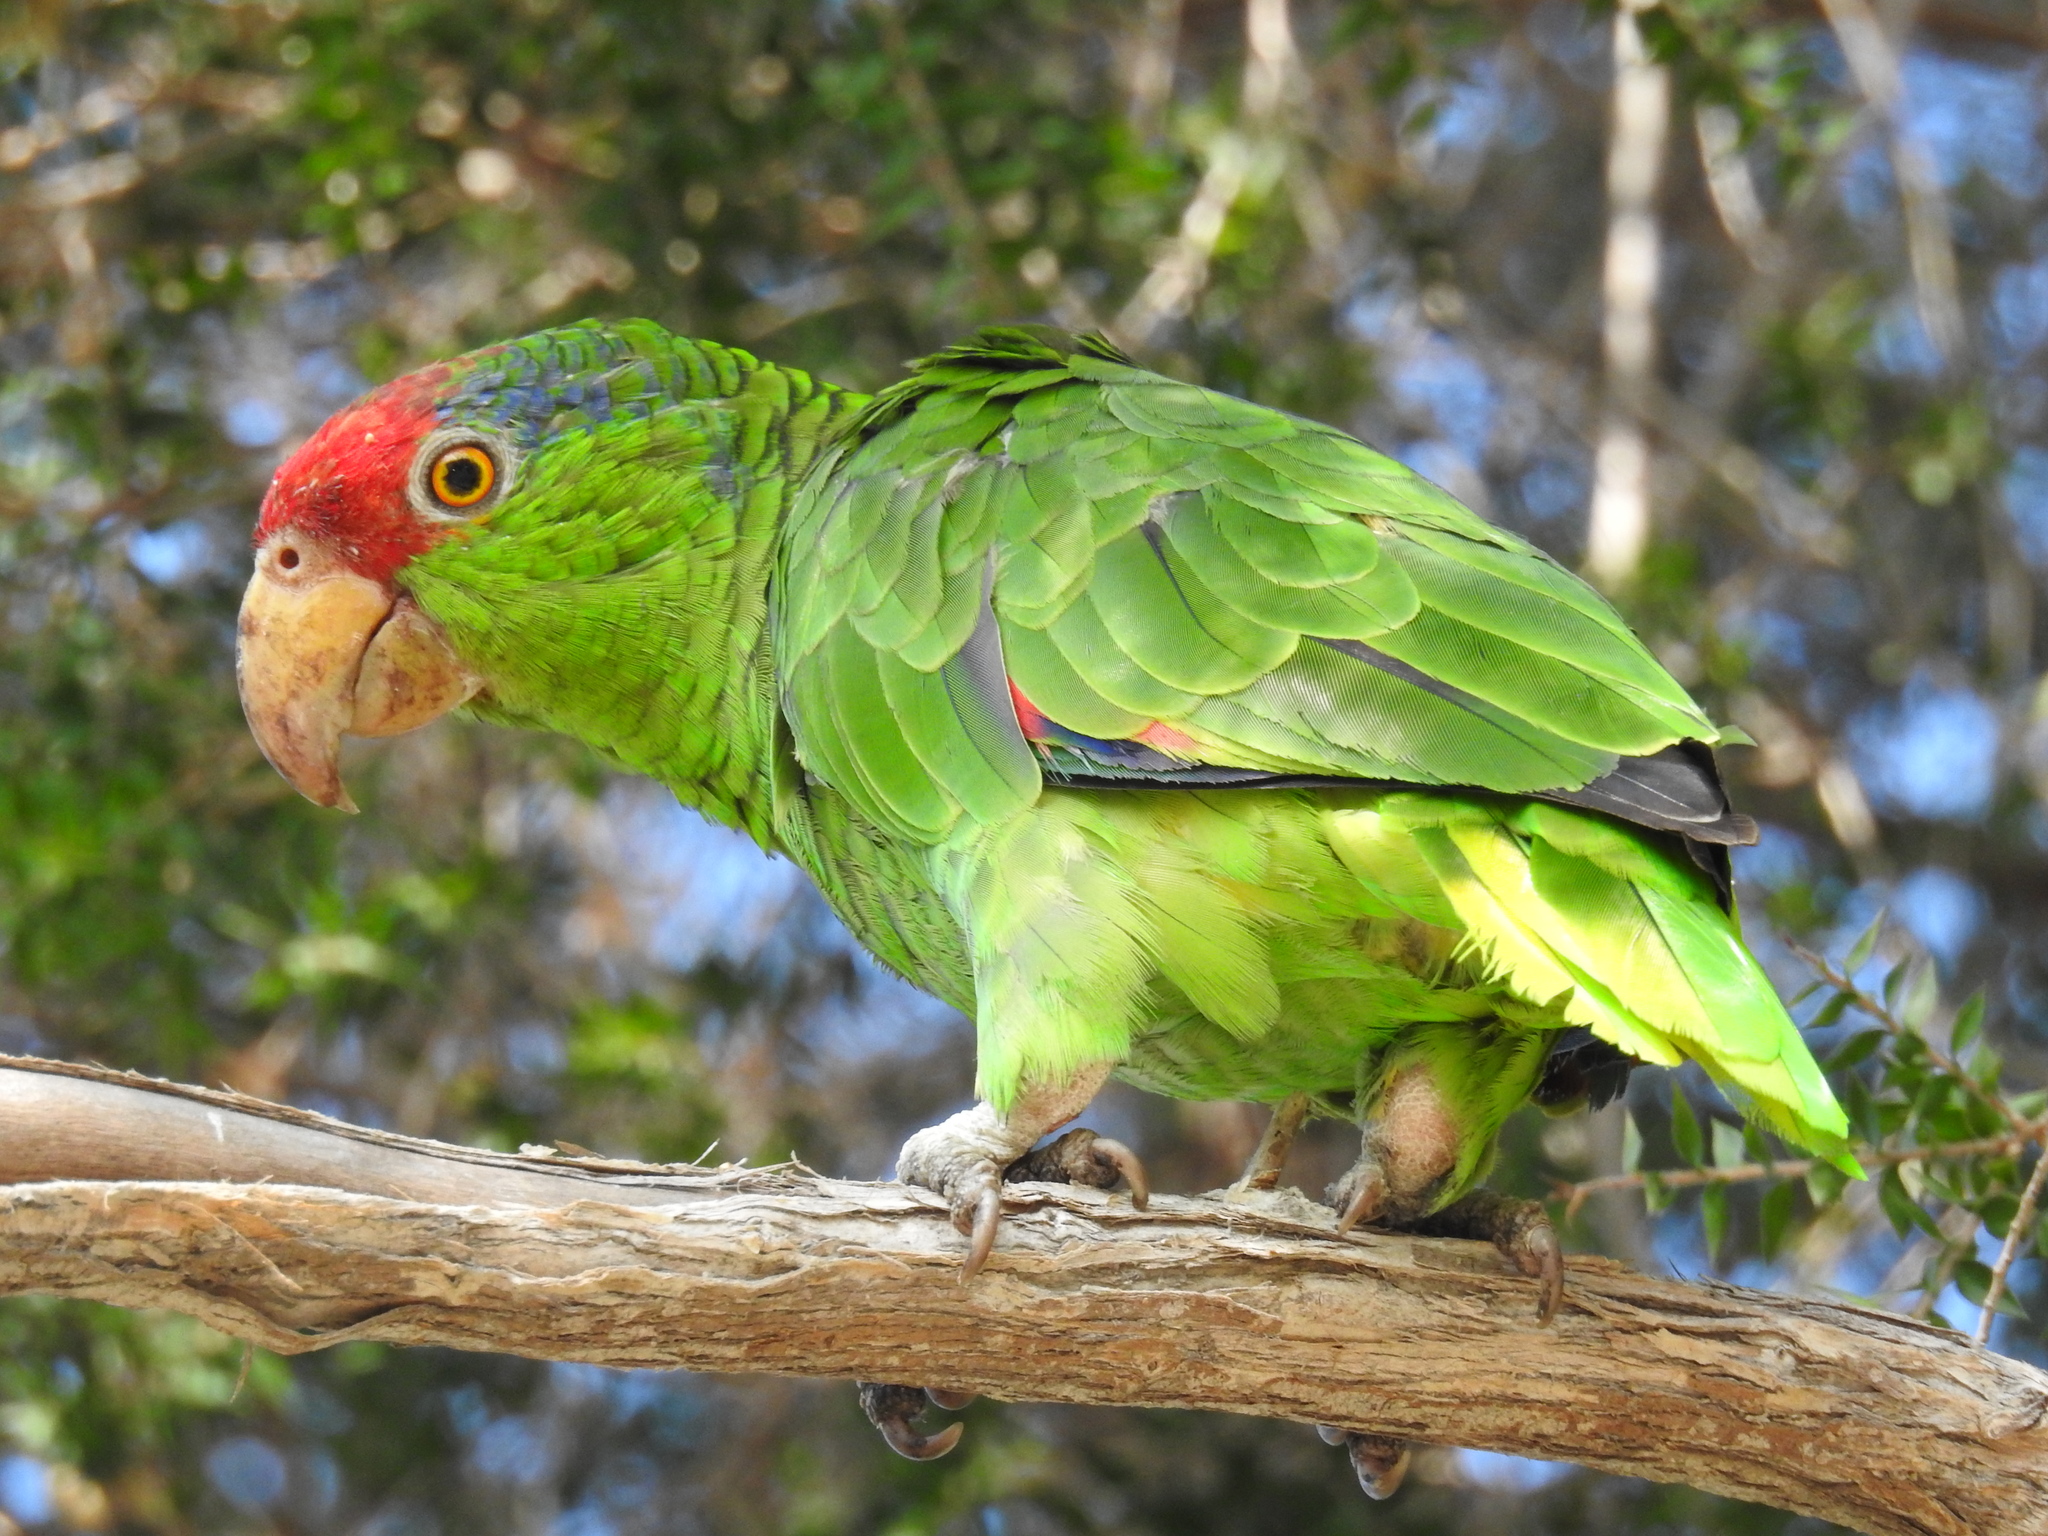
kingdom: Animalia
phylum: Chordata
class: Aves
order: Psittaciformes
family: Psittacidae
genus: Amazona
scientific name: Amazona viridigenalis
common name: Red-crowned amazon
